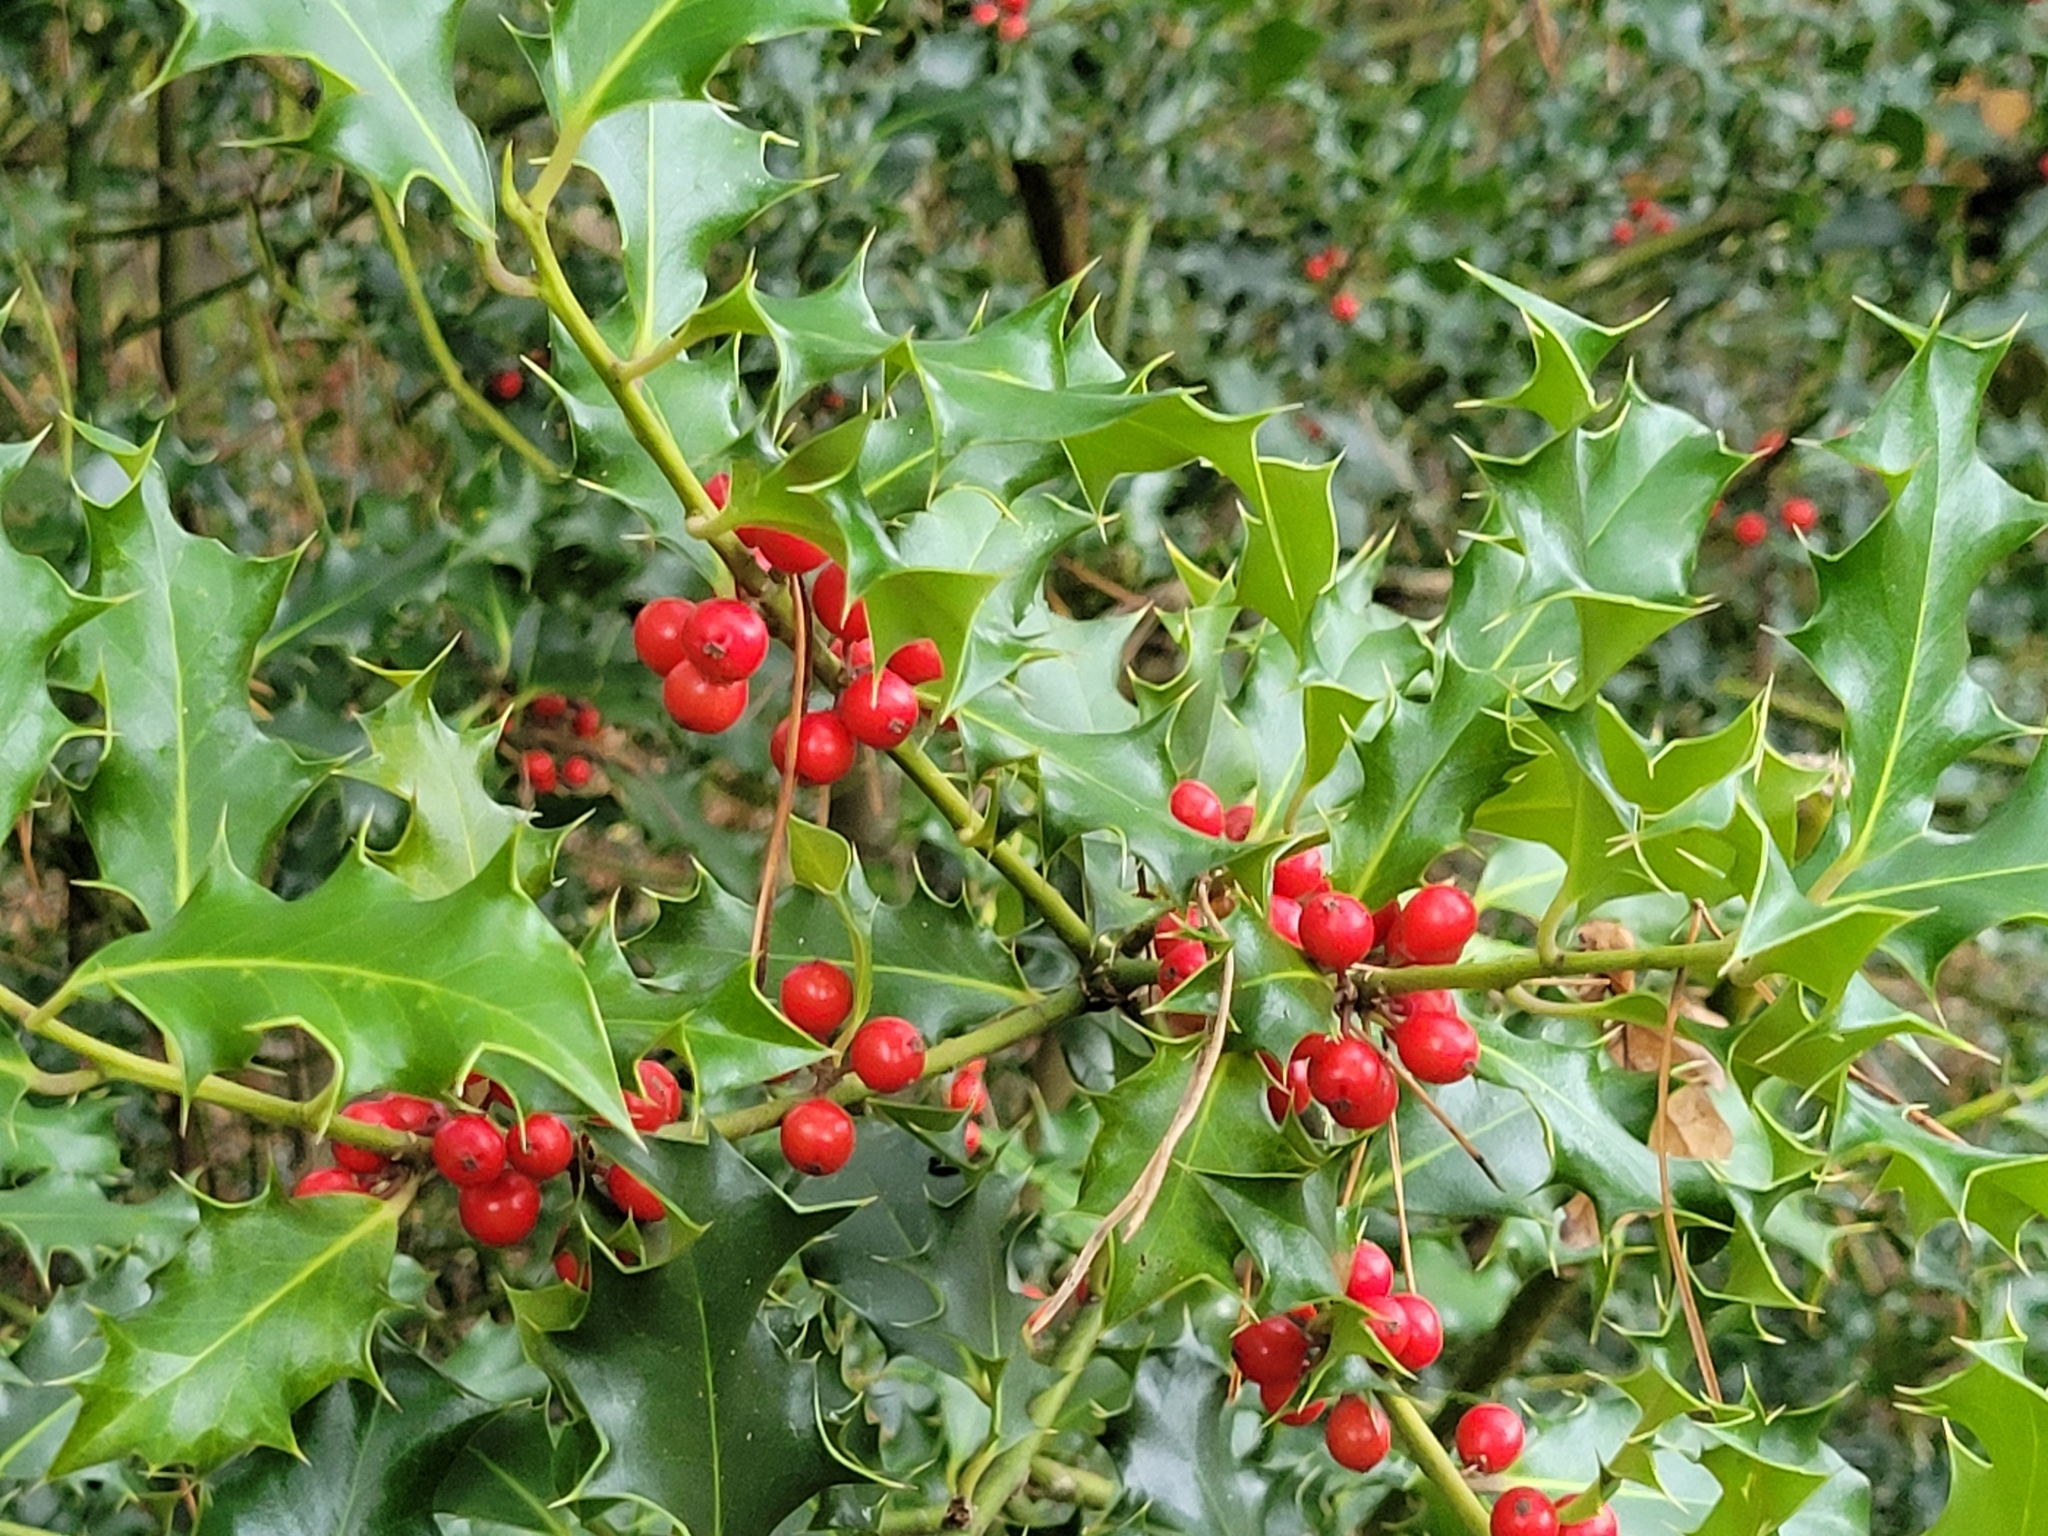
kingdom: Plantae
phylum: Tracheophyta
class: Magnoliopsida
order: Aquifoliales
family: Aquifoliaceae
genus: Ilex
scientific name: Ilex aquifolium
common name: English holly
